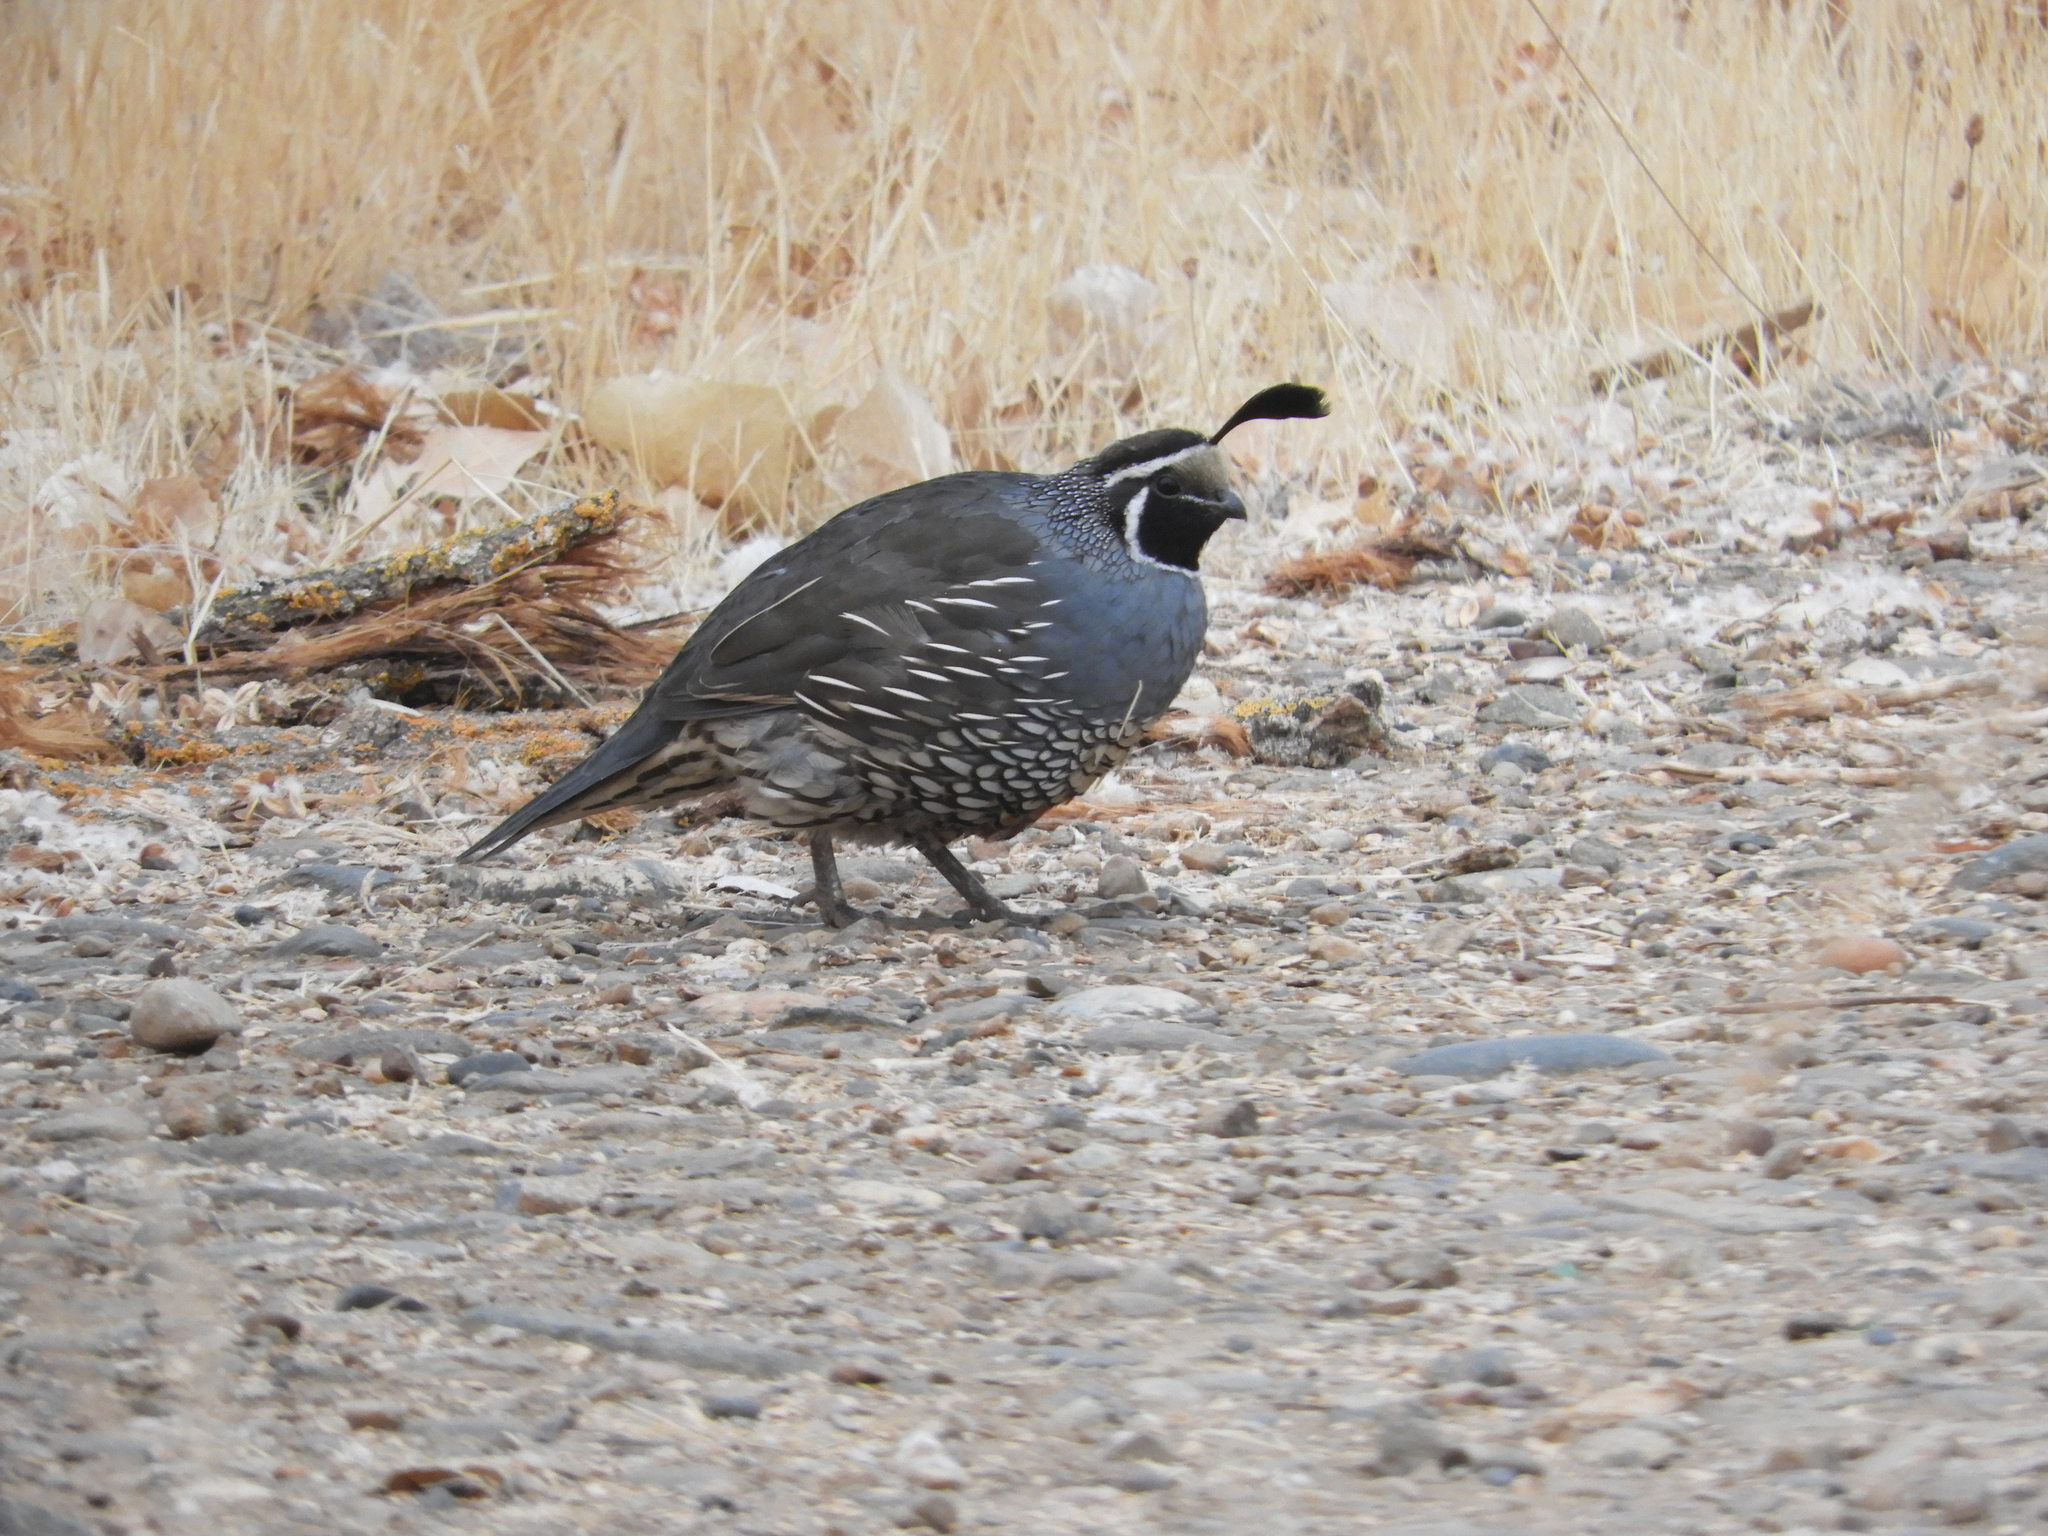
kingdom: Animalia
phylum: Chordata
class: Aves
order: Galliformes
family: Odontophoridae
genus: Callipepla
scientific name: Callipepla californica
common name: California quail
